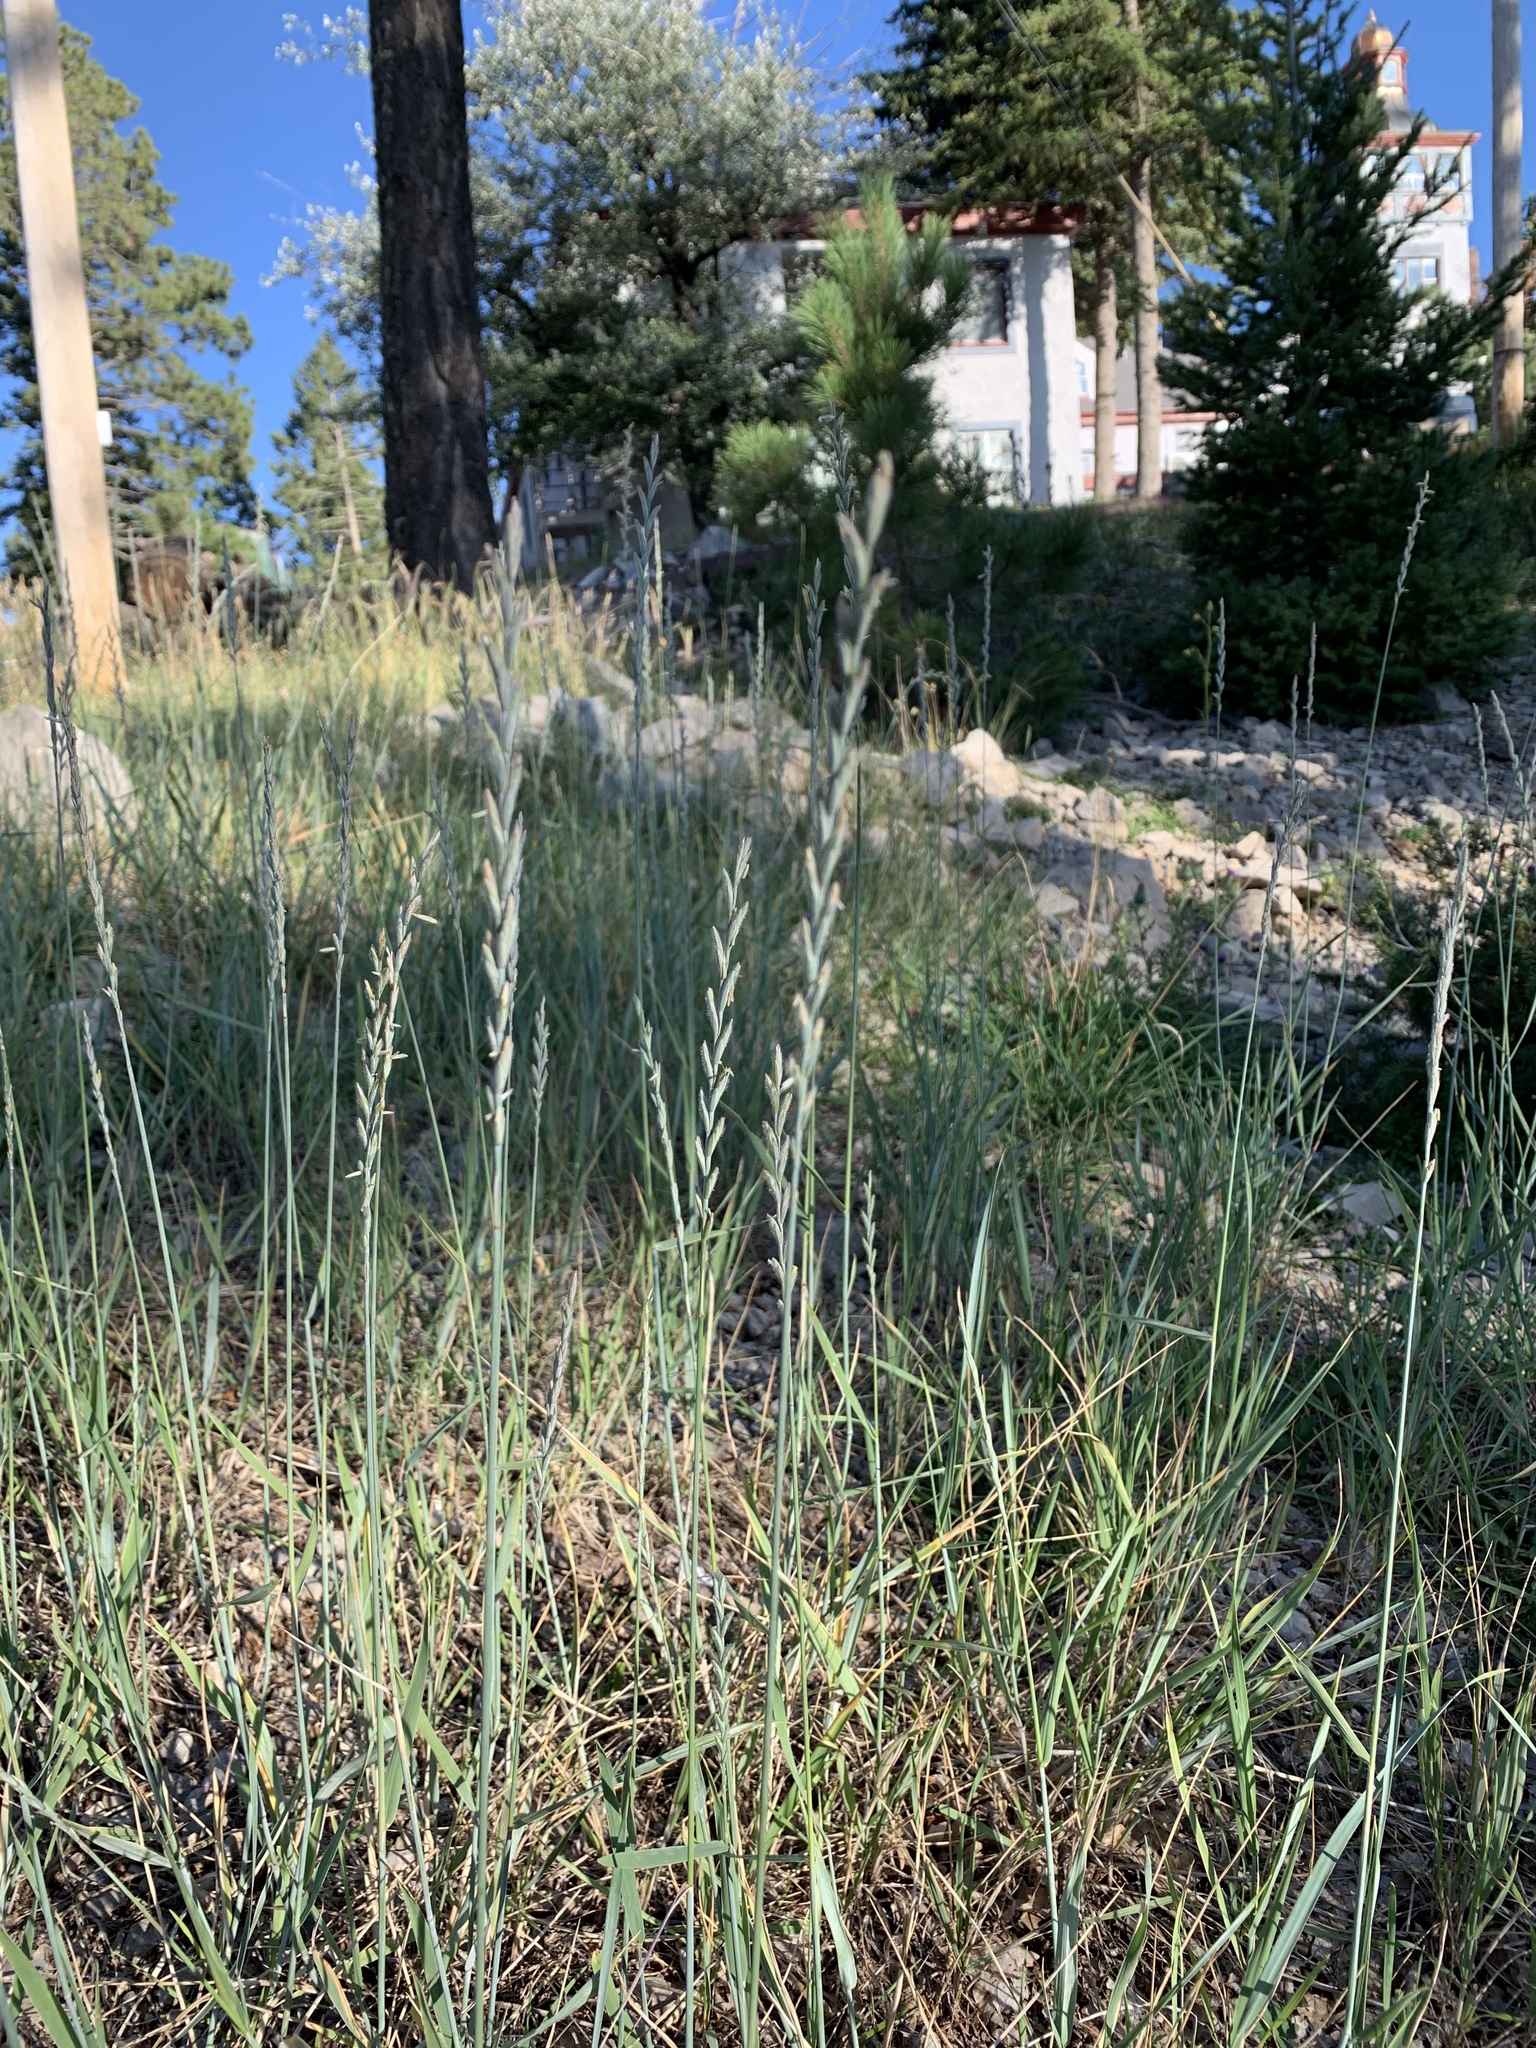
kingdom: Plantae
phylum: Tracheophyta
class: Liliopsida
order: Poales
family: Poaceae
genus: Bouteloua
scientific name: Bouteloua curtipendula
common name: Side-oats grama
